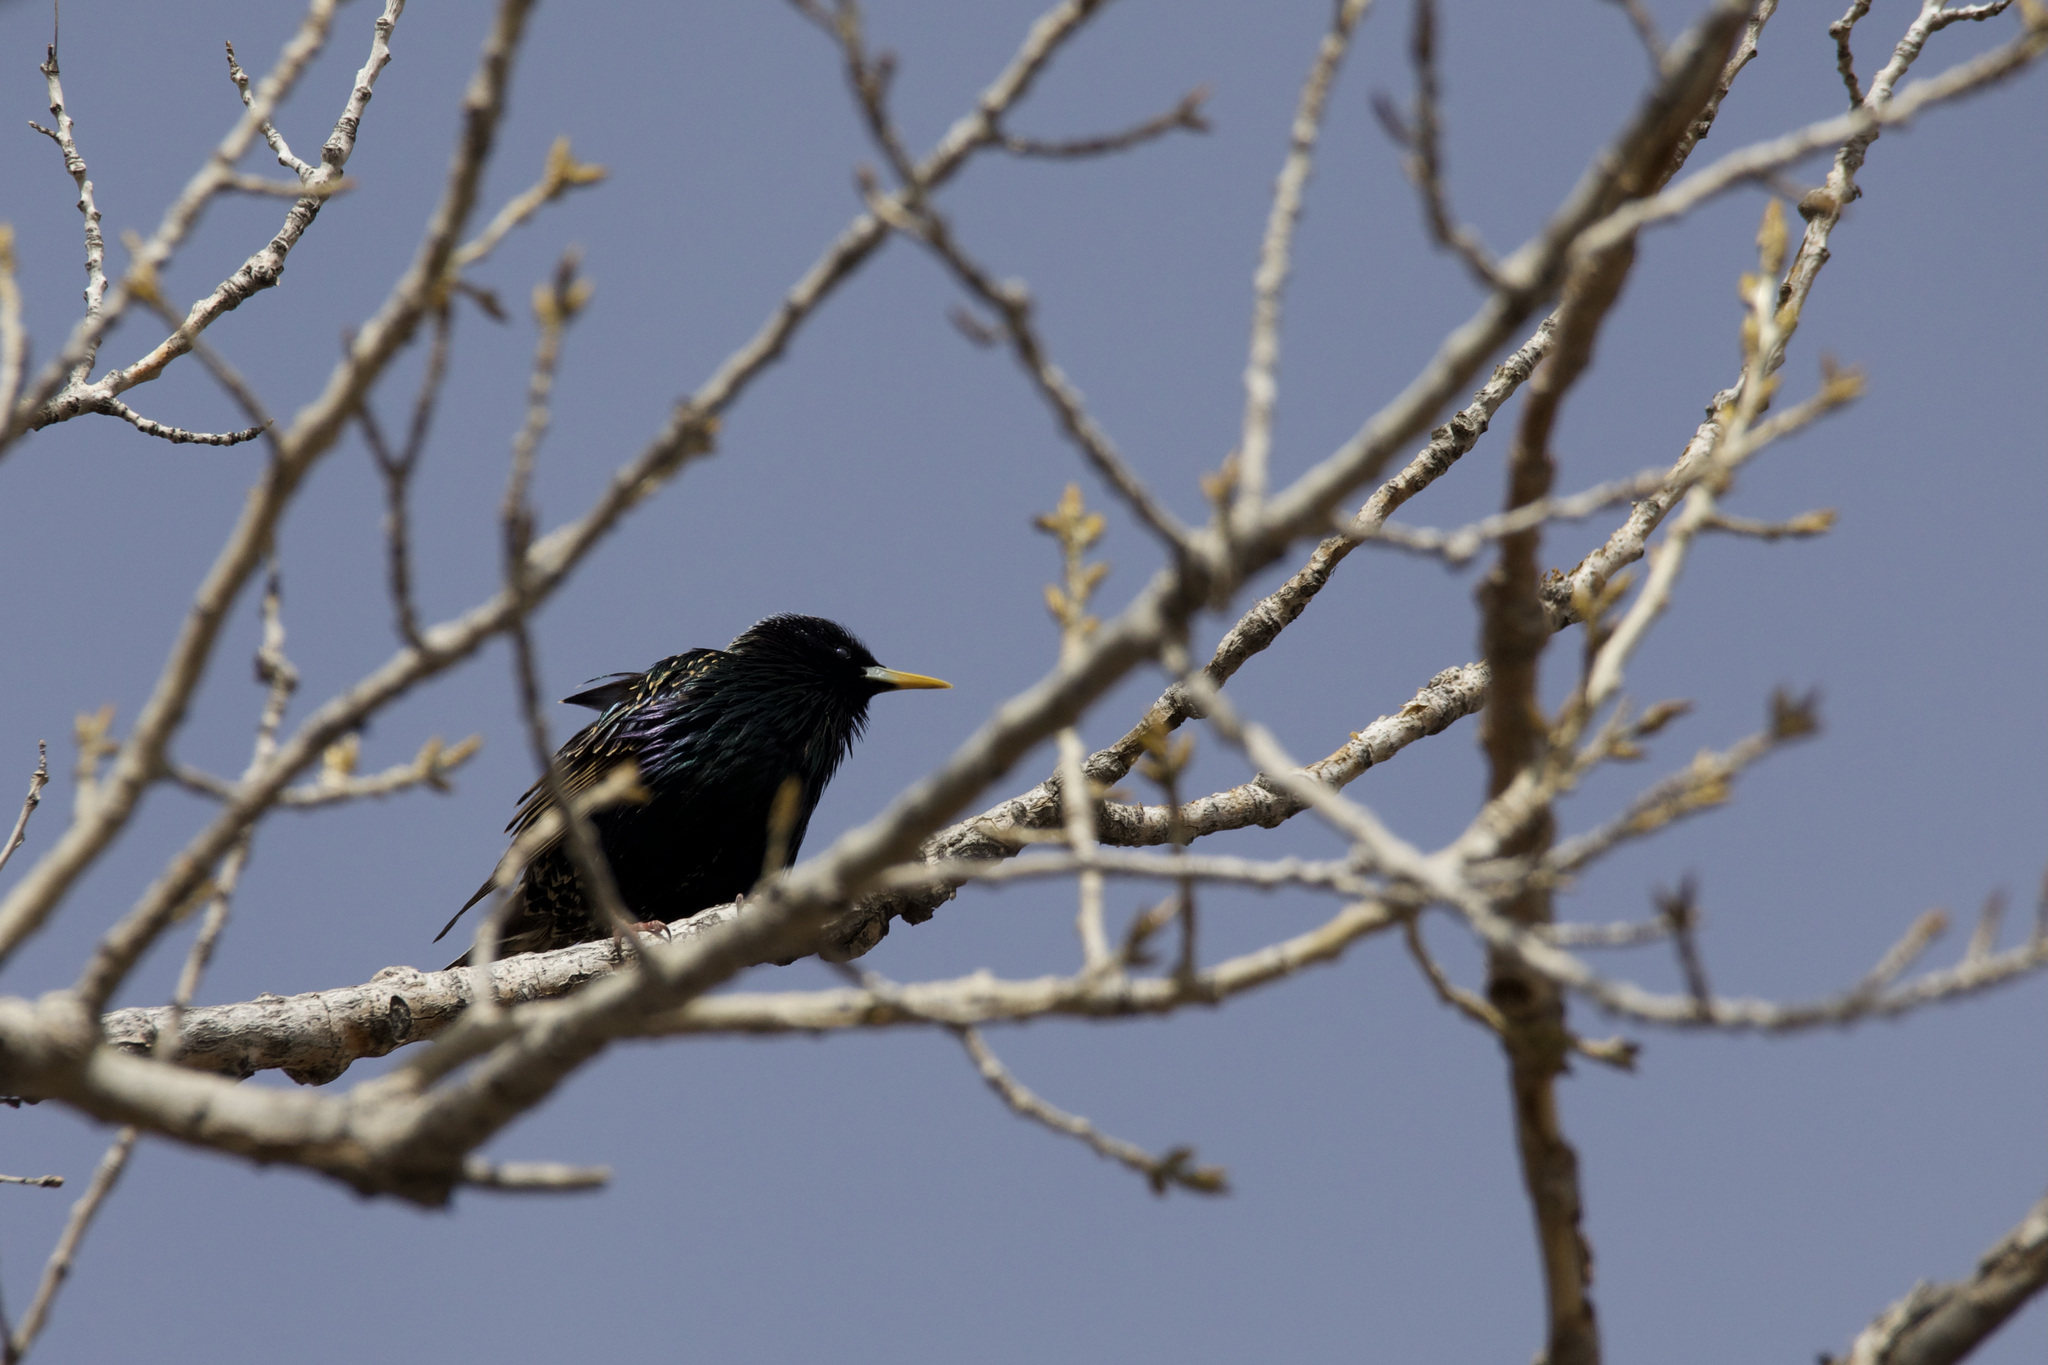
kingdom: Animalia
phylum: Chordata
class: Aves
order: Passeriformes
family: Sturnidae
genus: Sturnus
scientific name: Sturnus vulgaris
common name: Common starling
